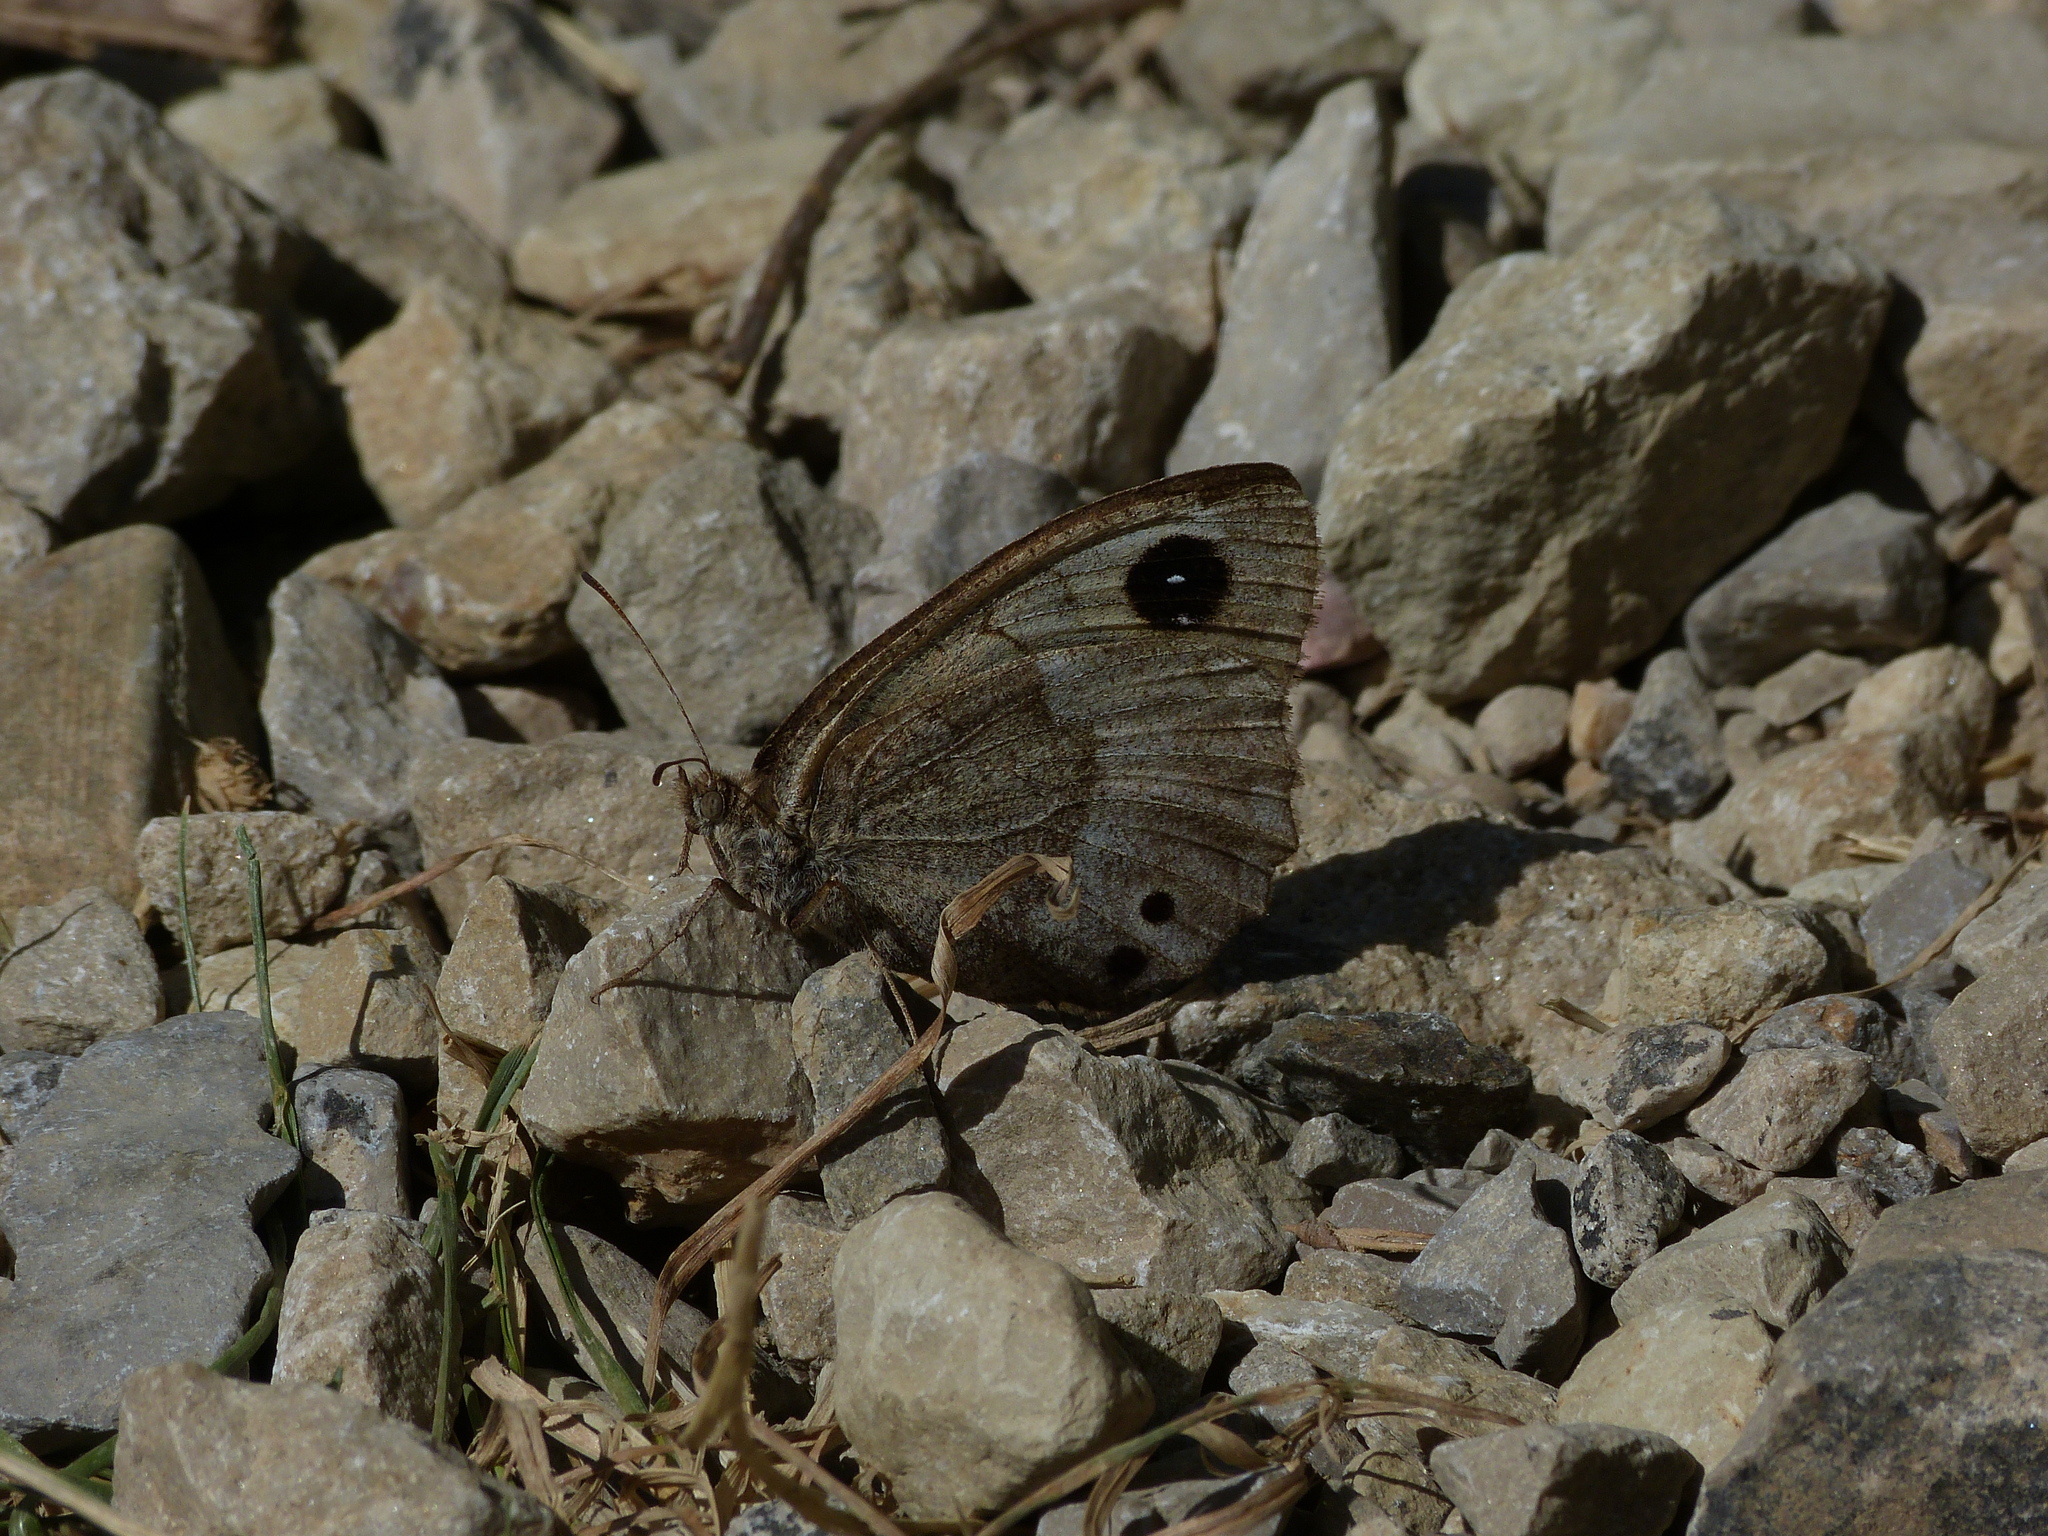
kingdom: Animalia
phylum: Arthropoda
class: Insecta
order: Lepidoptera
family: Nymphalidae
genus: Satyrus
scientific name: Satyrus ferula
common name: Great sooty satyr
